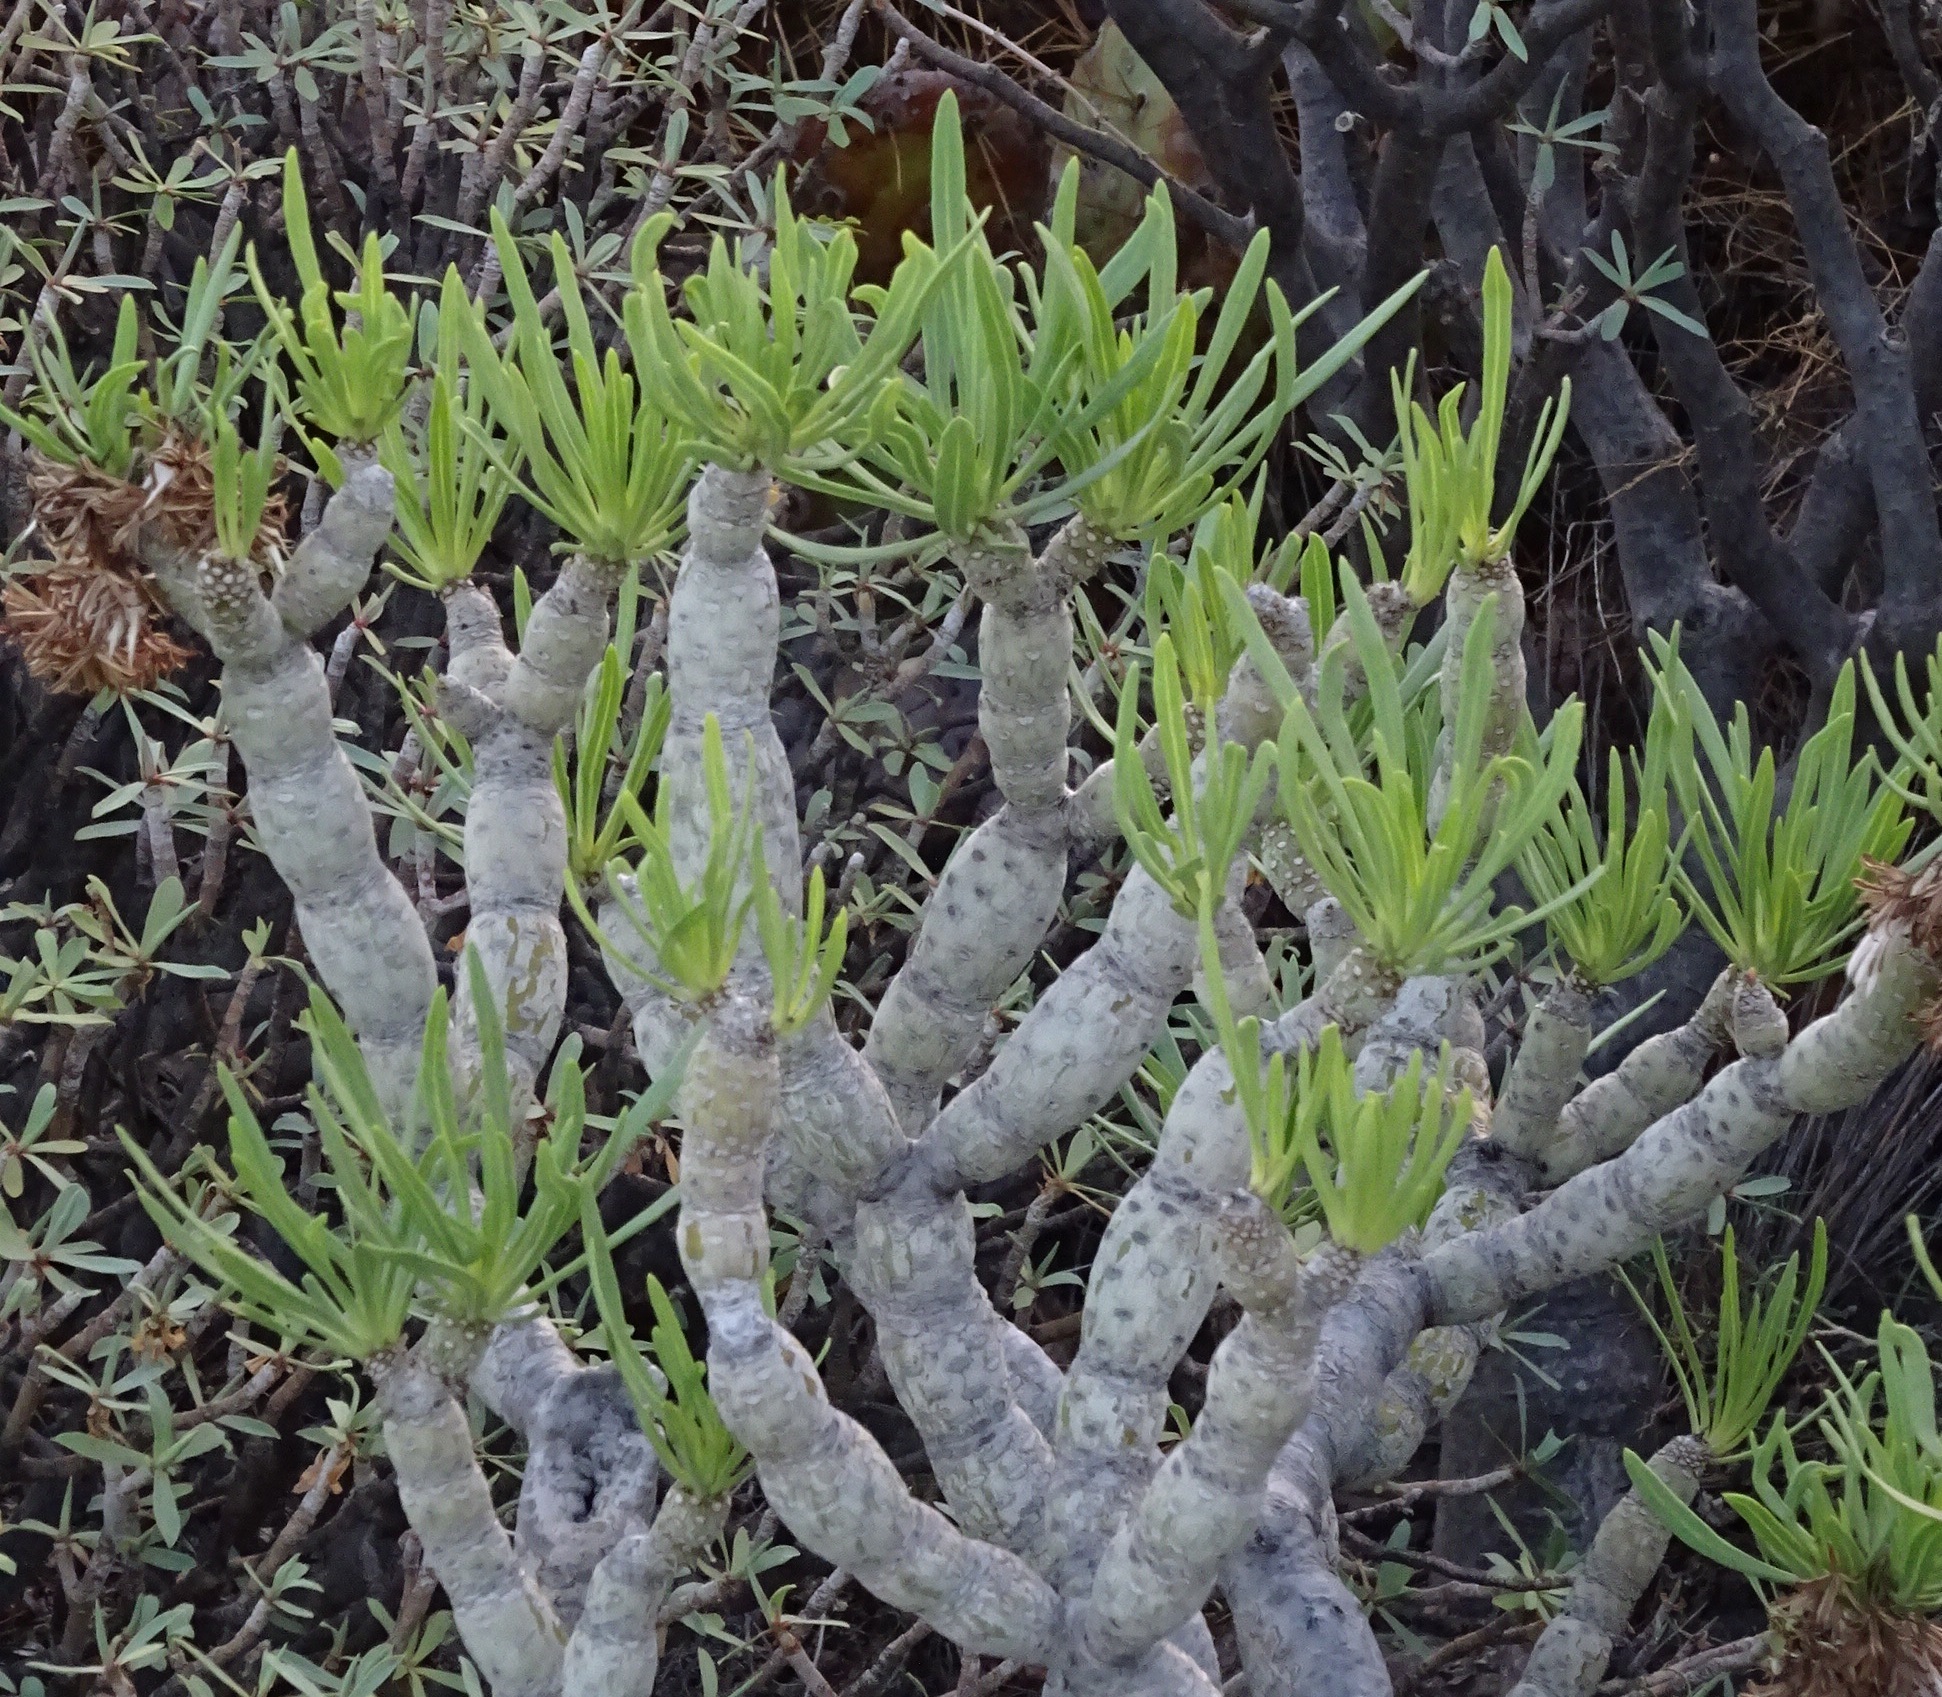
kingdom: Plantae
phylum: Tracheophyta
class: Magnoliopsida
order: Asterales
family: Asteraceae
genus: Kleinia
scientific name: Kleinia neriifolia
